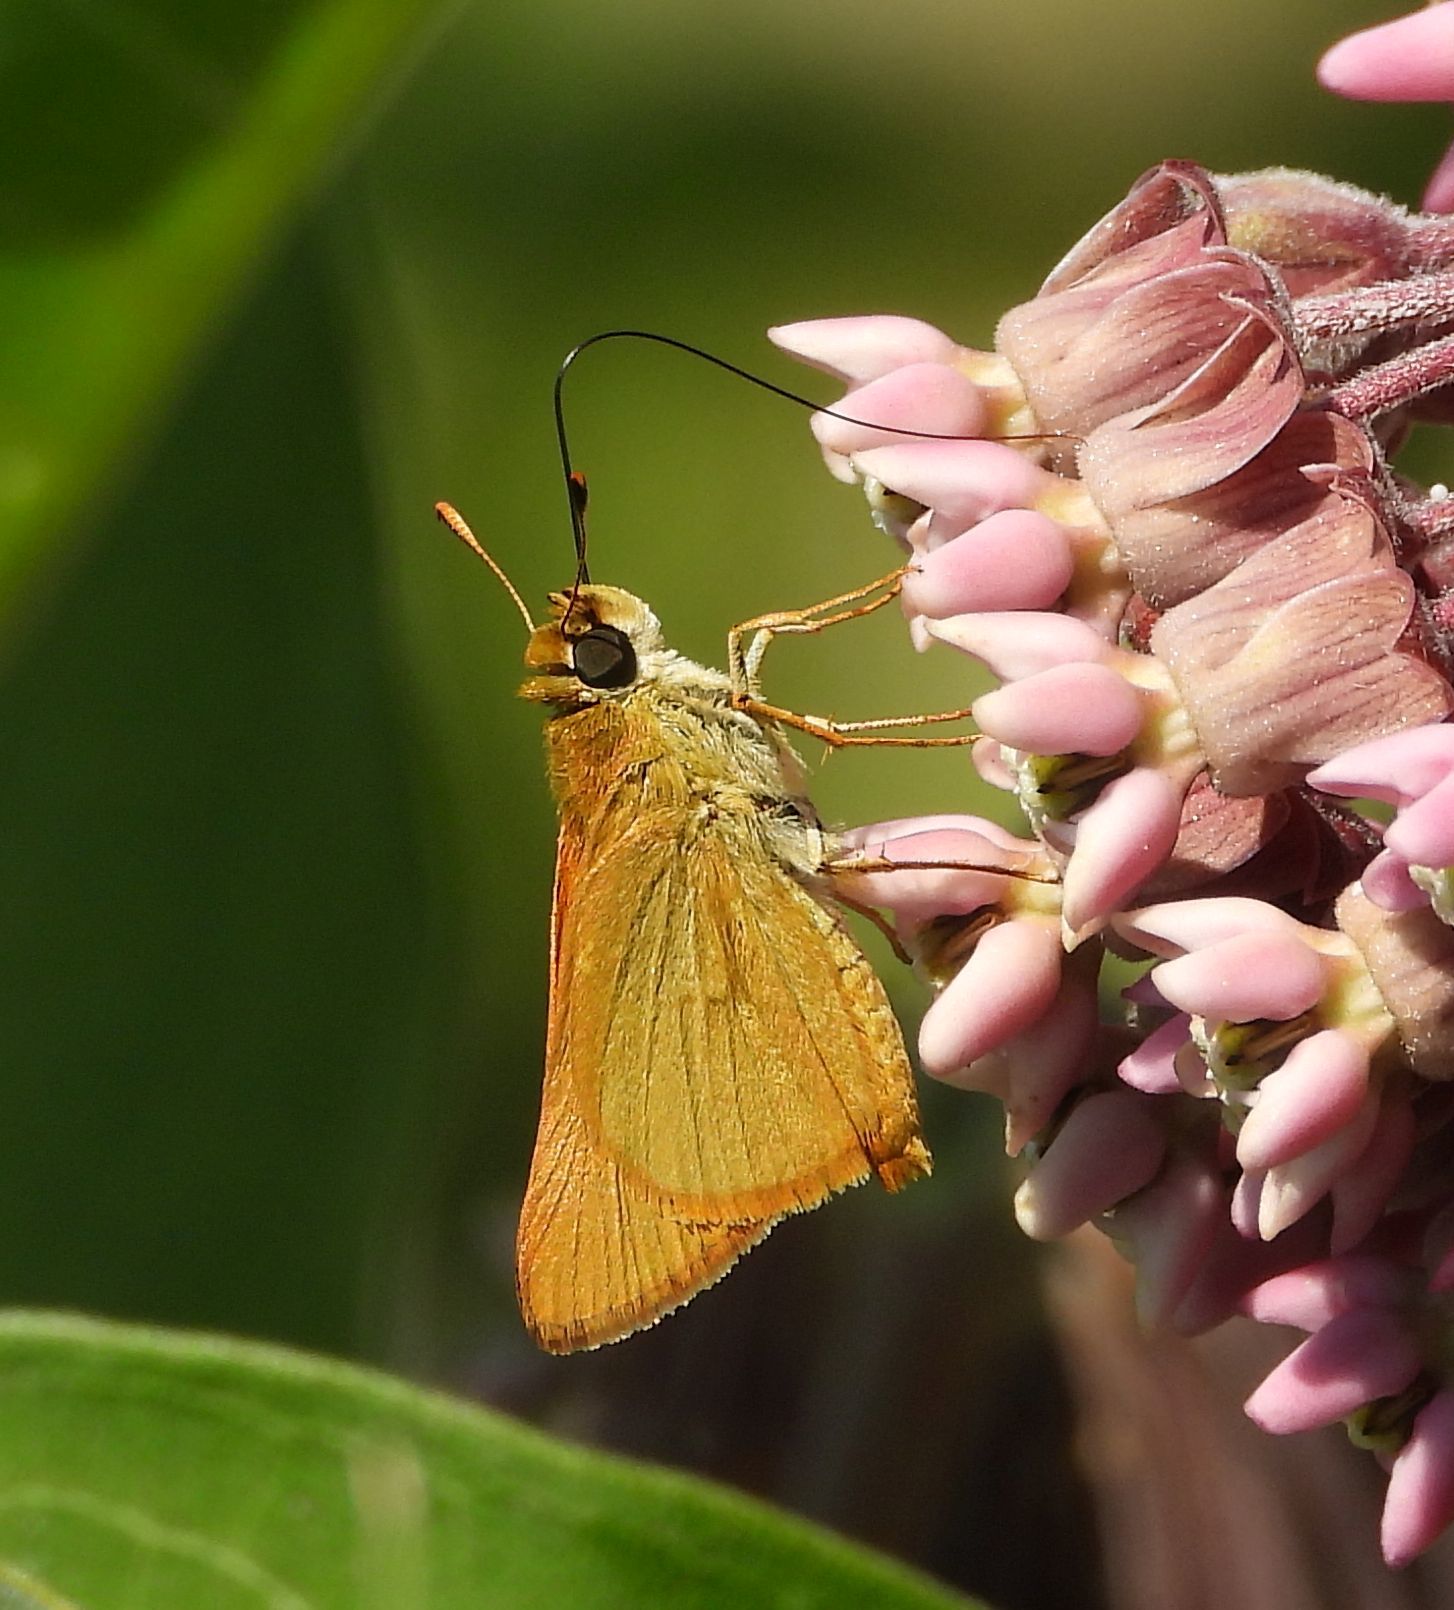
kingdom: Animalia
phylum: Arthropoda
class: Insecta
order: Lepidoptera
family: Hesperiidae
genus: Atrytone
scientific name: Atrytone delaware
